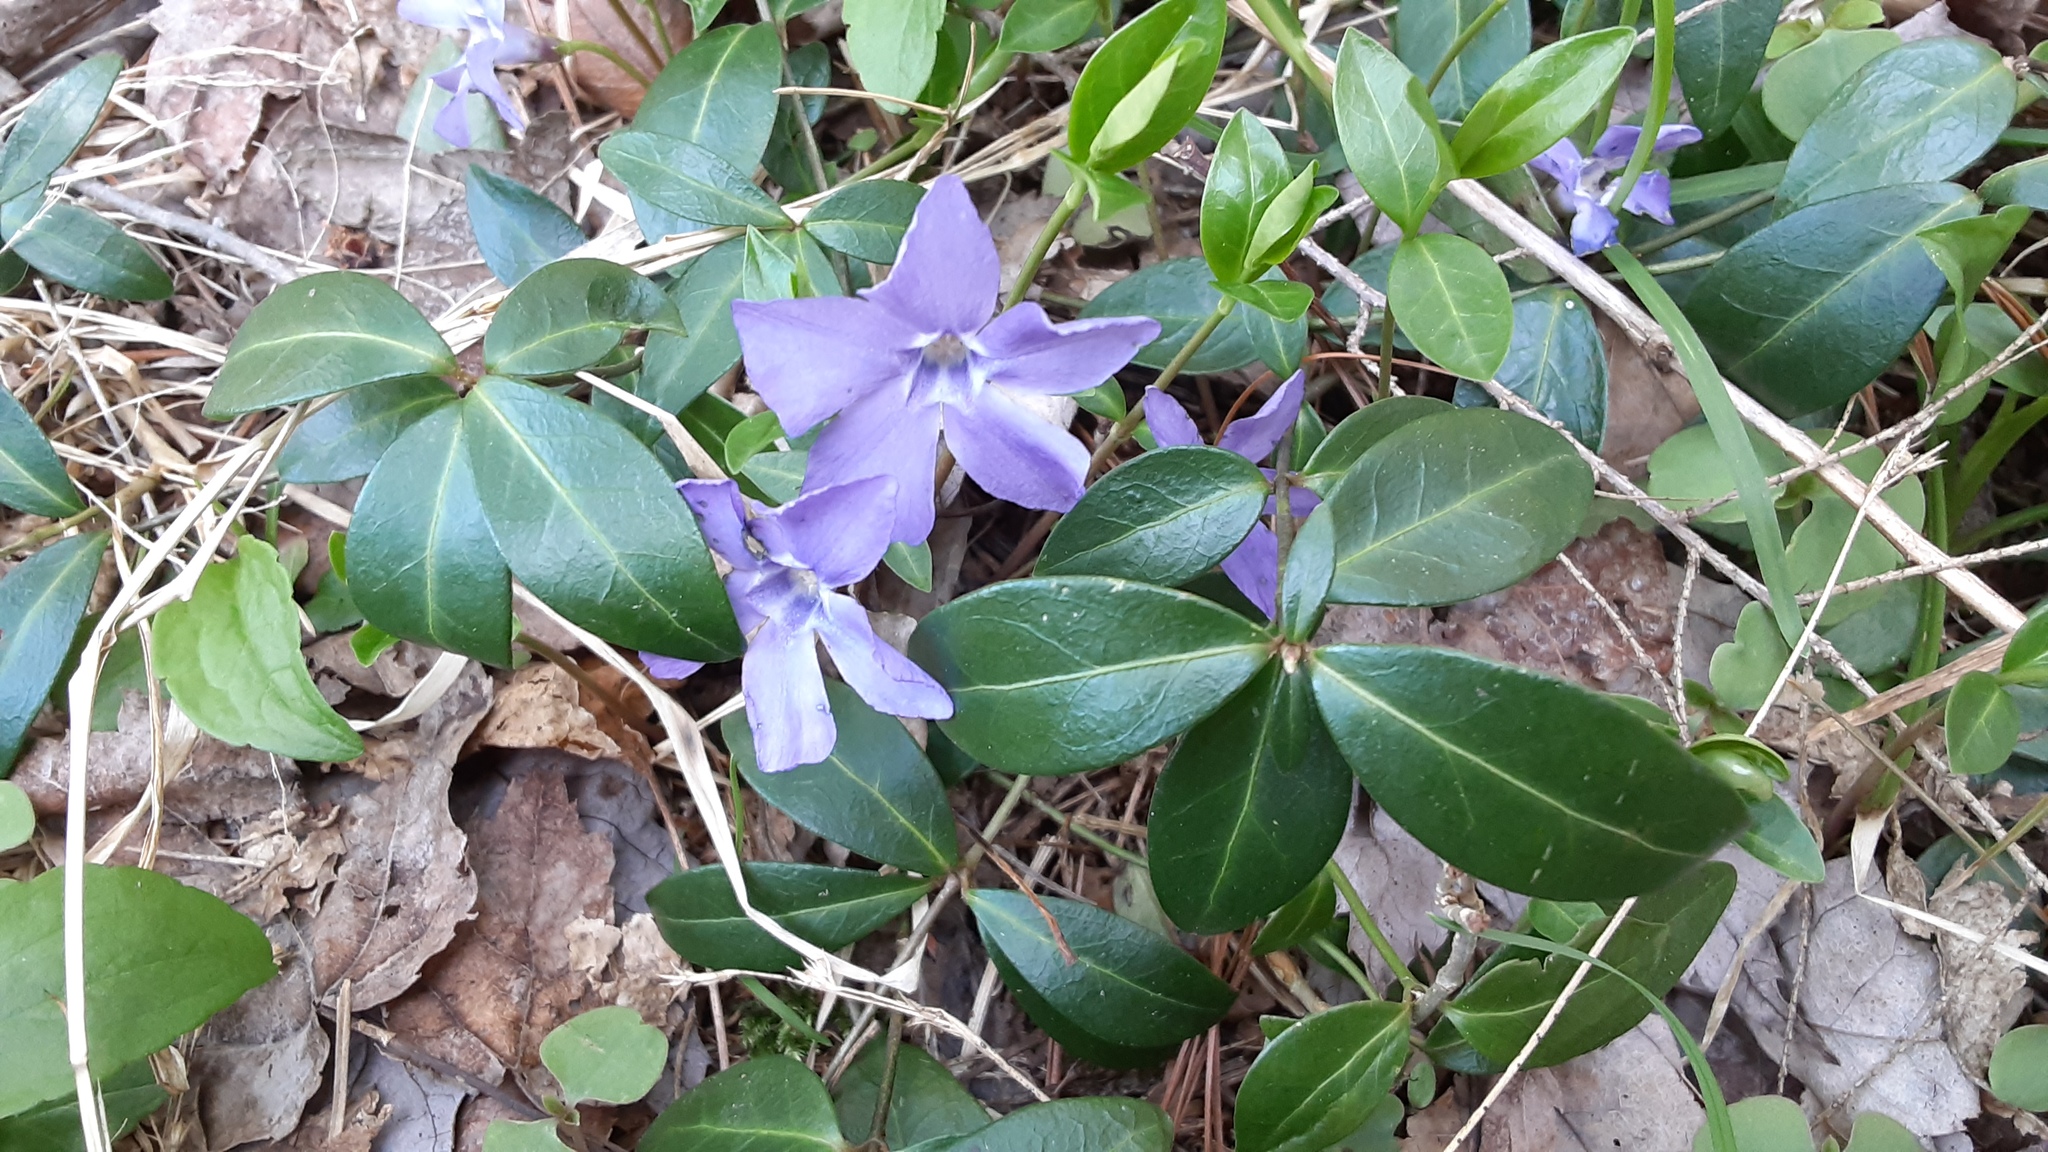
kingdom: Plantae
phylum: Tracheophyta
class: Magnoliopsida
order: Gentianales
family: Apocynaceae
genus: Vinca
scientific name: Vinca minor
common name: Lesser periwinkle
